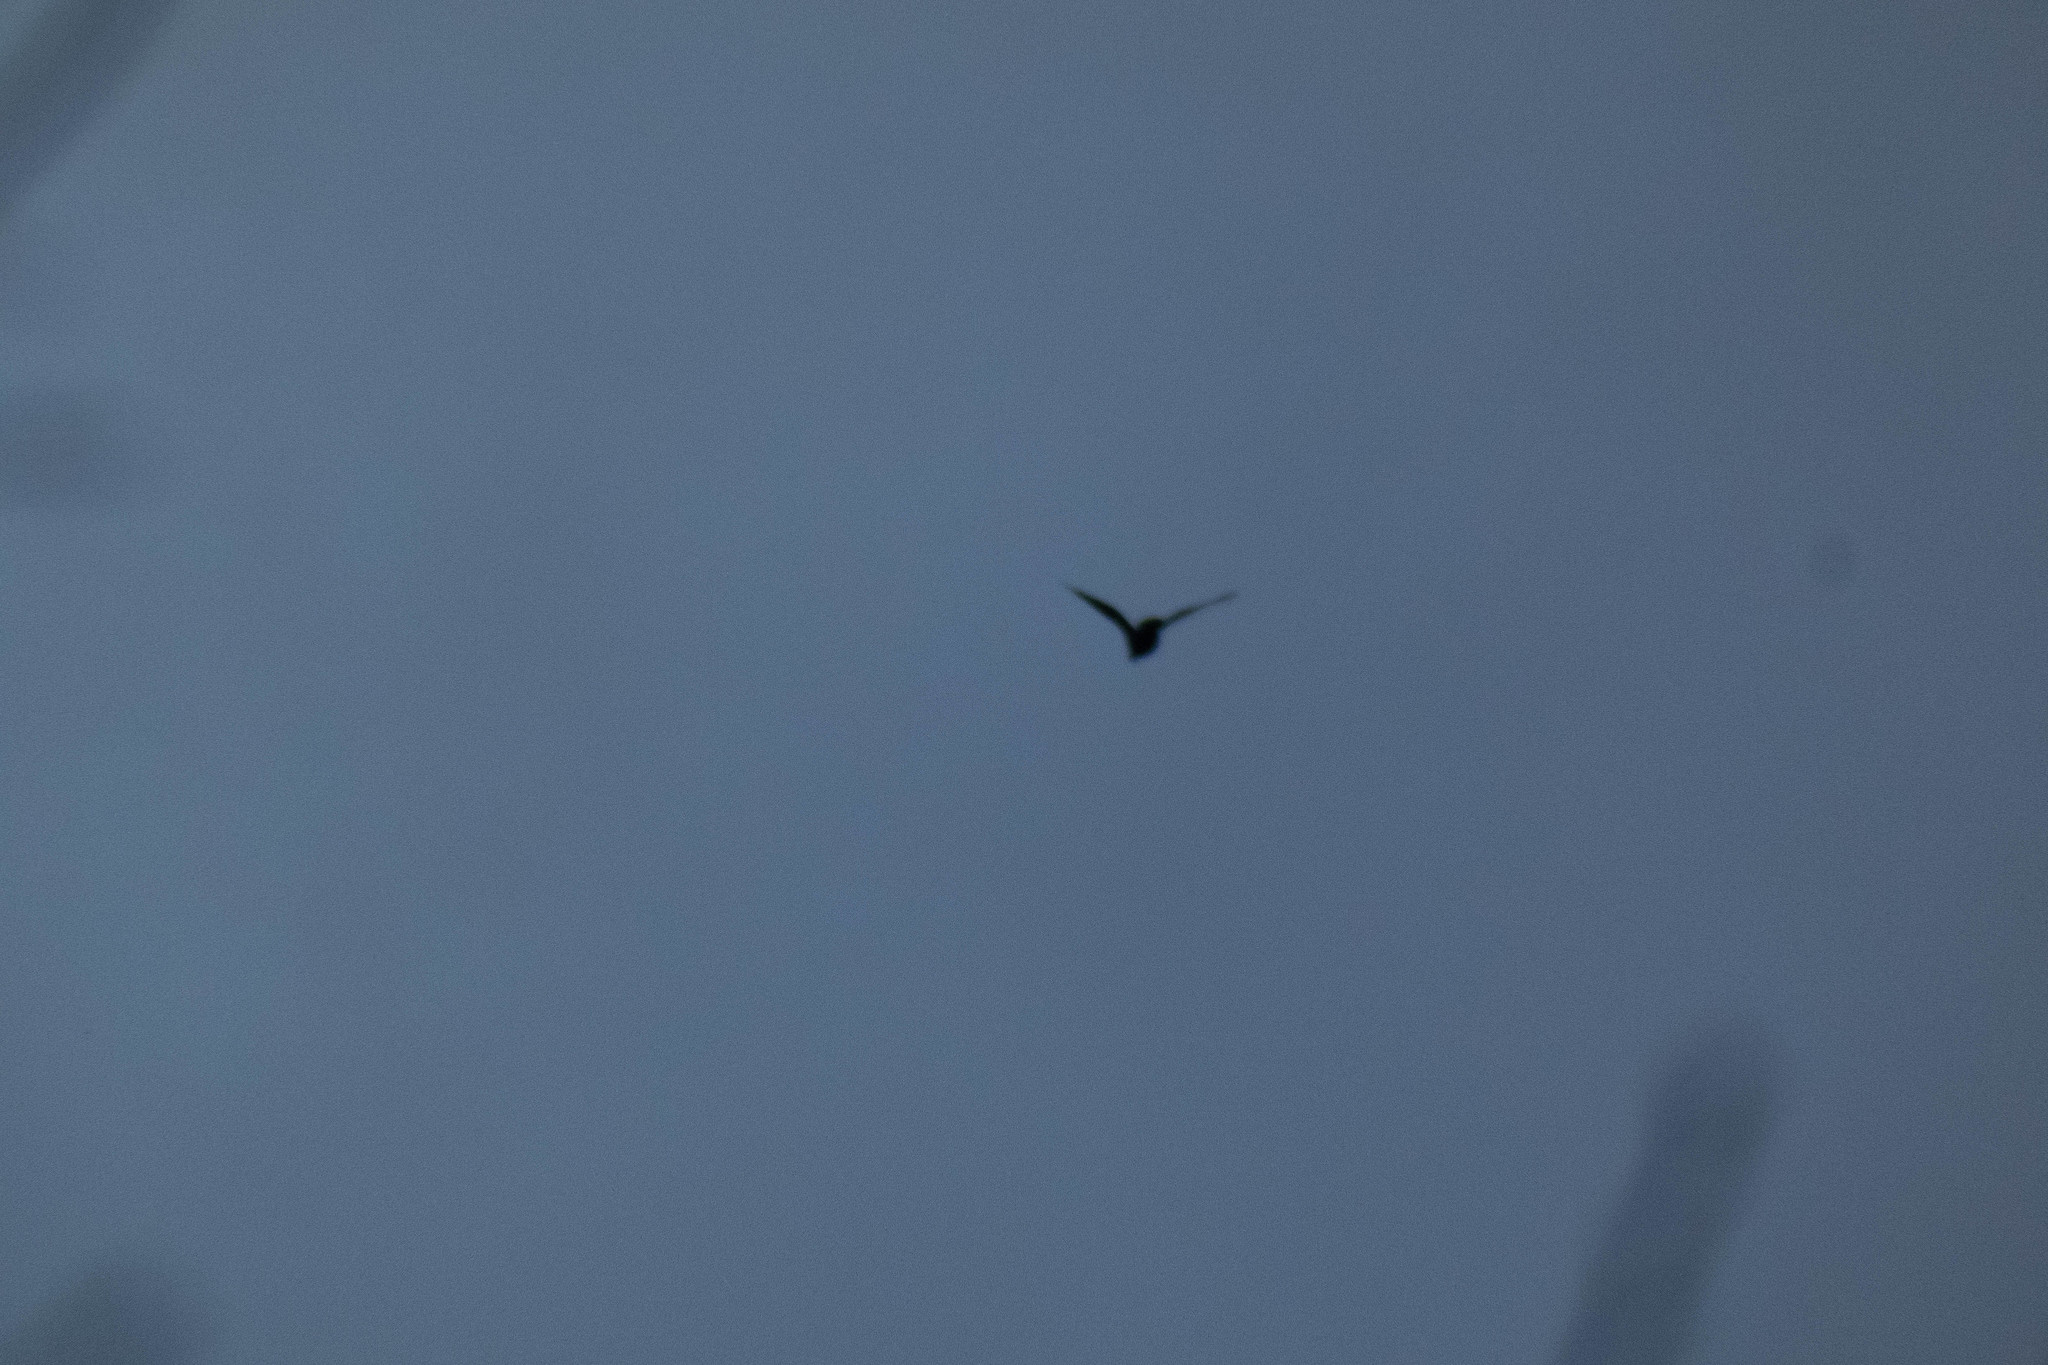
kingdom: Animalia
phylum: Chordata
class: Aves
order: Passeriformes
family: Corvidae
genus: Corvus
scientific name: Corvus brachyrhynchos
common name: American crow
